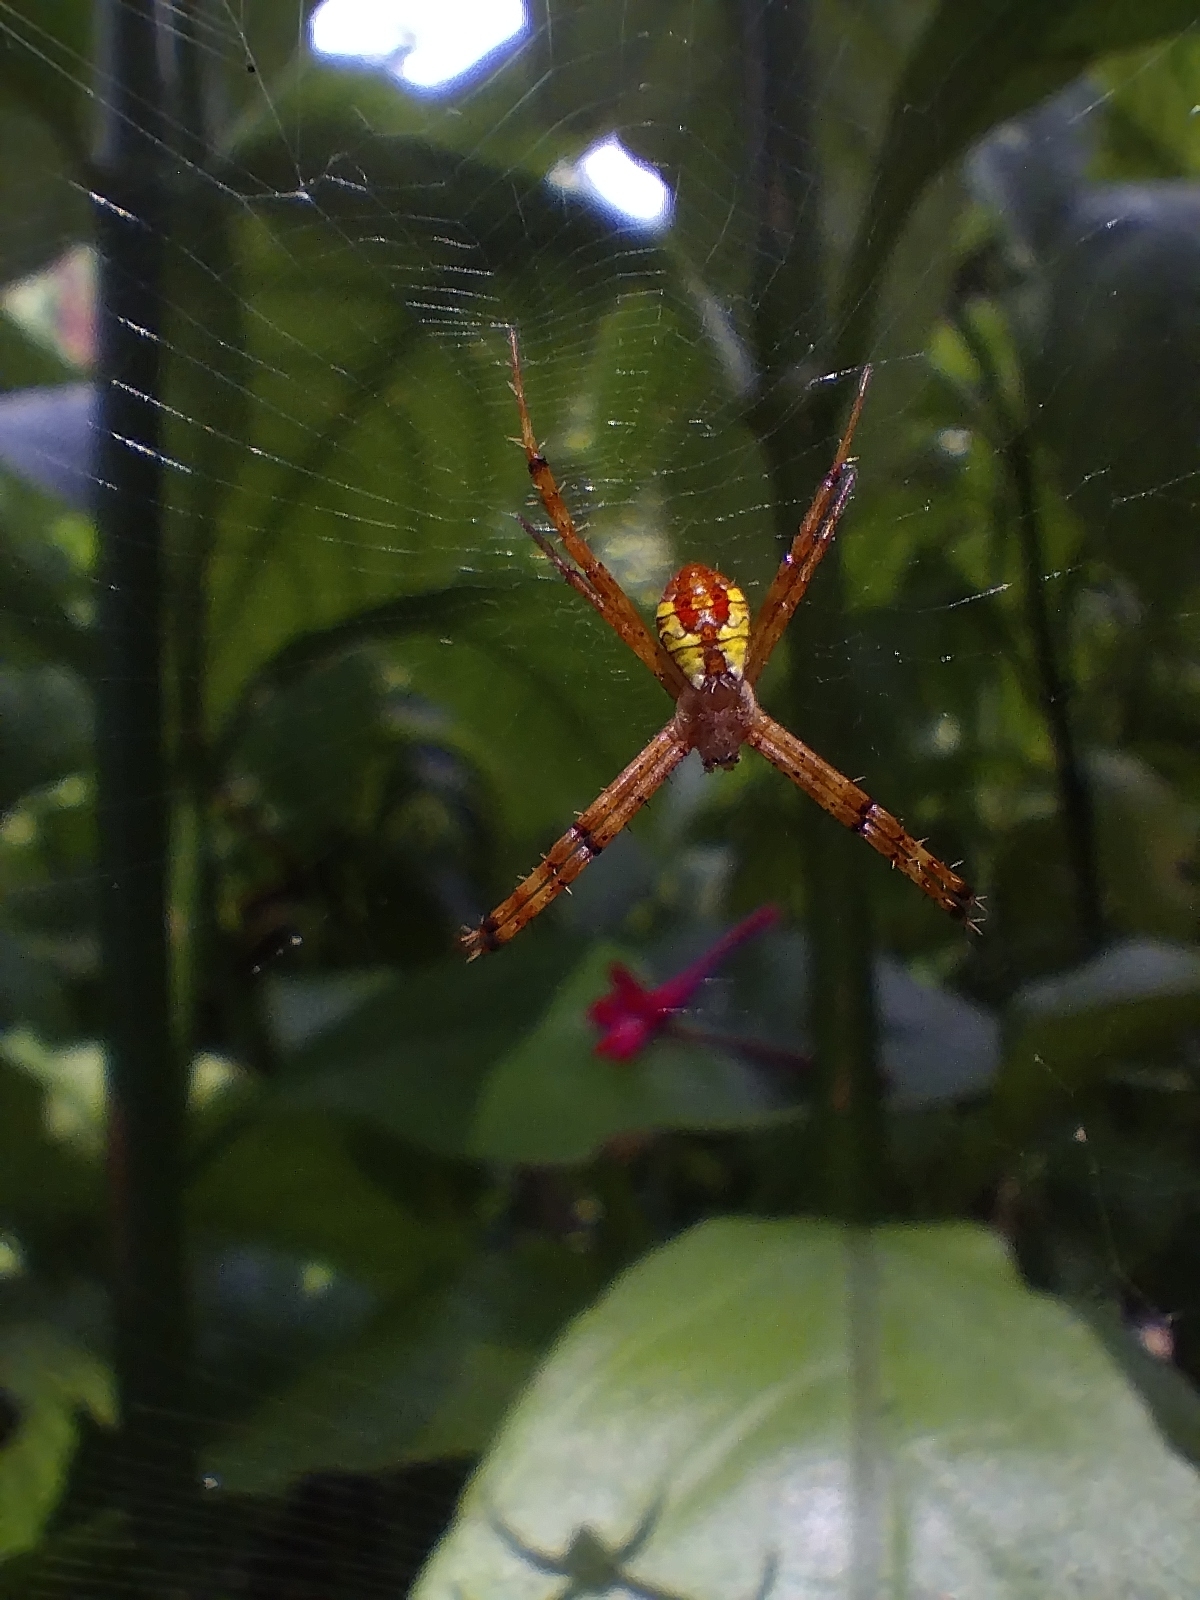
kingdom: Animalia
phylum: Arthropoda
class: Arachnida
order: Araneae
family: Araneidae
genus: Argiope
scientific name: Argiope perforata
